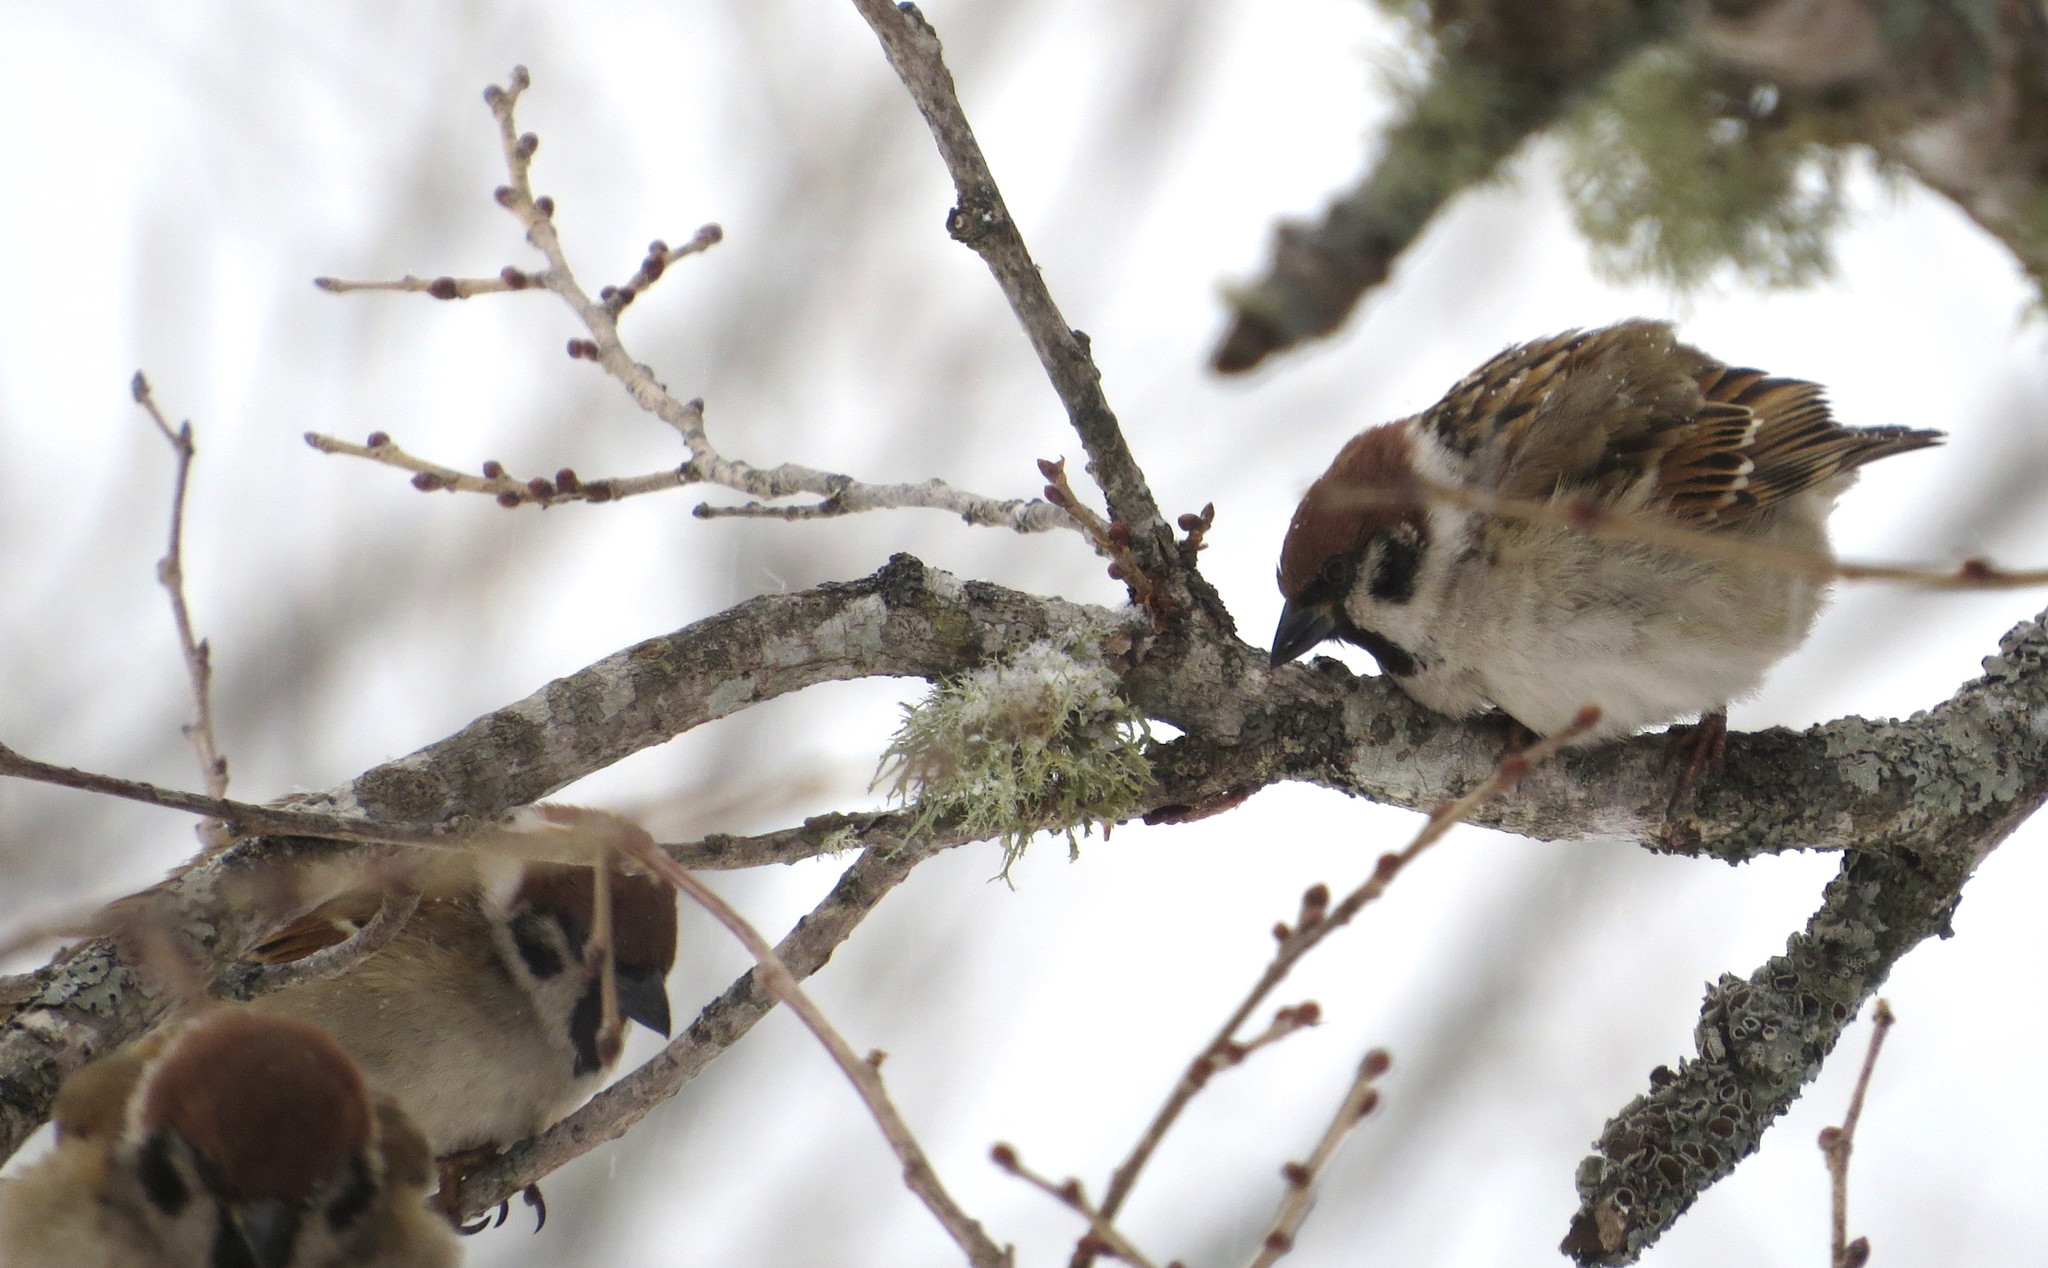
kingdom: Animalia
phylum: Chordata
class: Aves
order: Passeriformes
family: Passeridae
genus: Passer
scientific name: Passer montanus
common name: Eurasian tree sparrow
